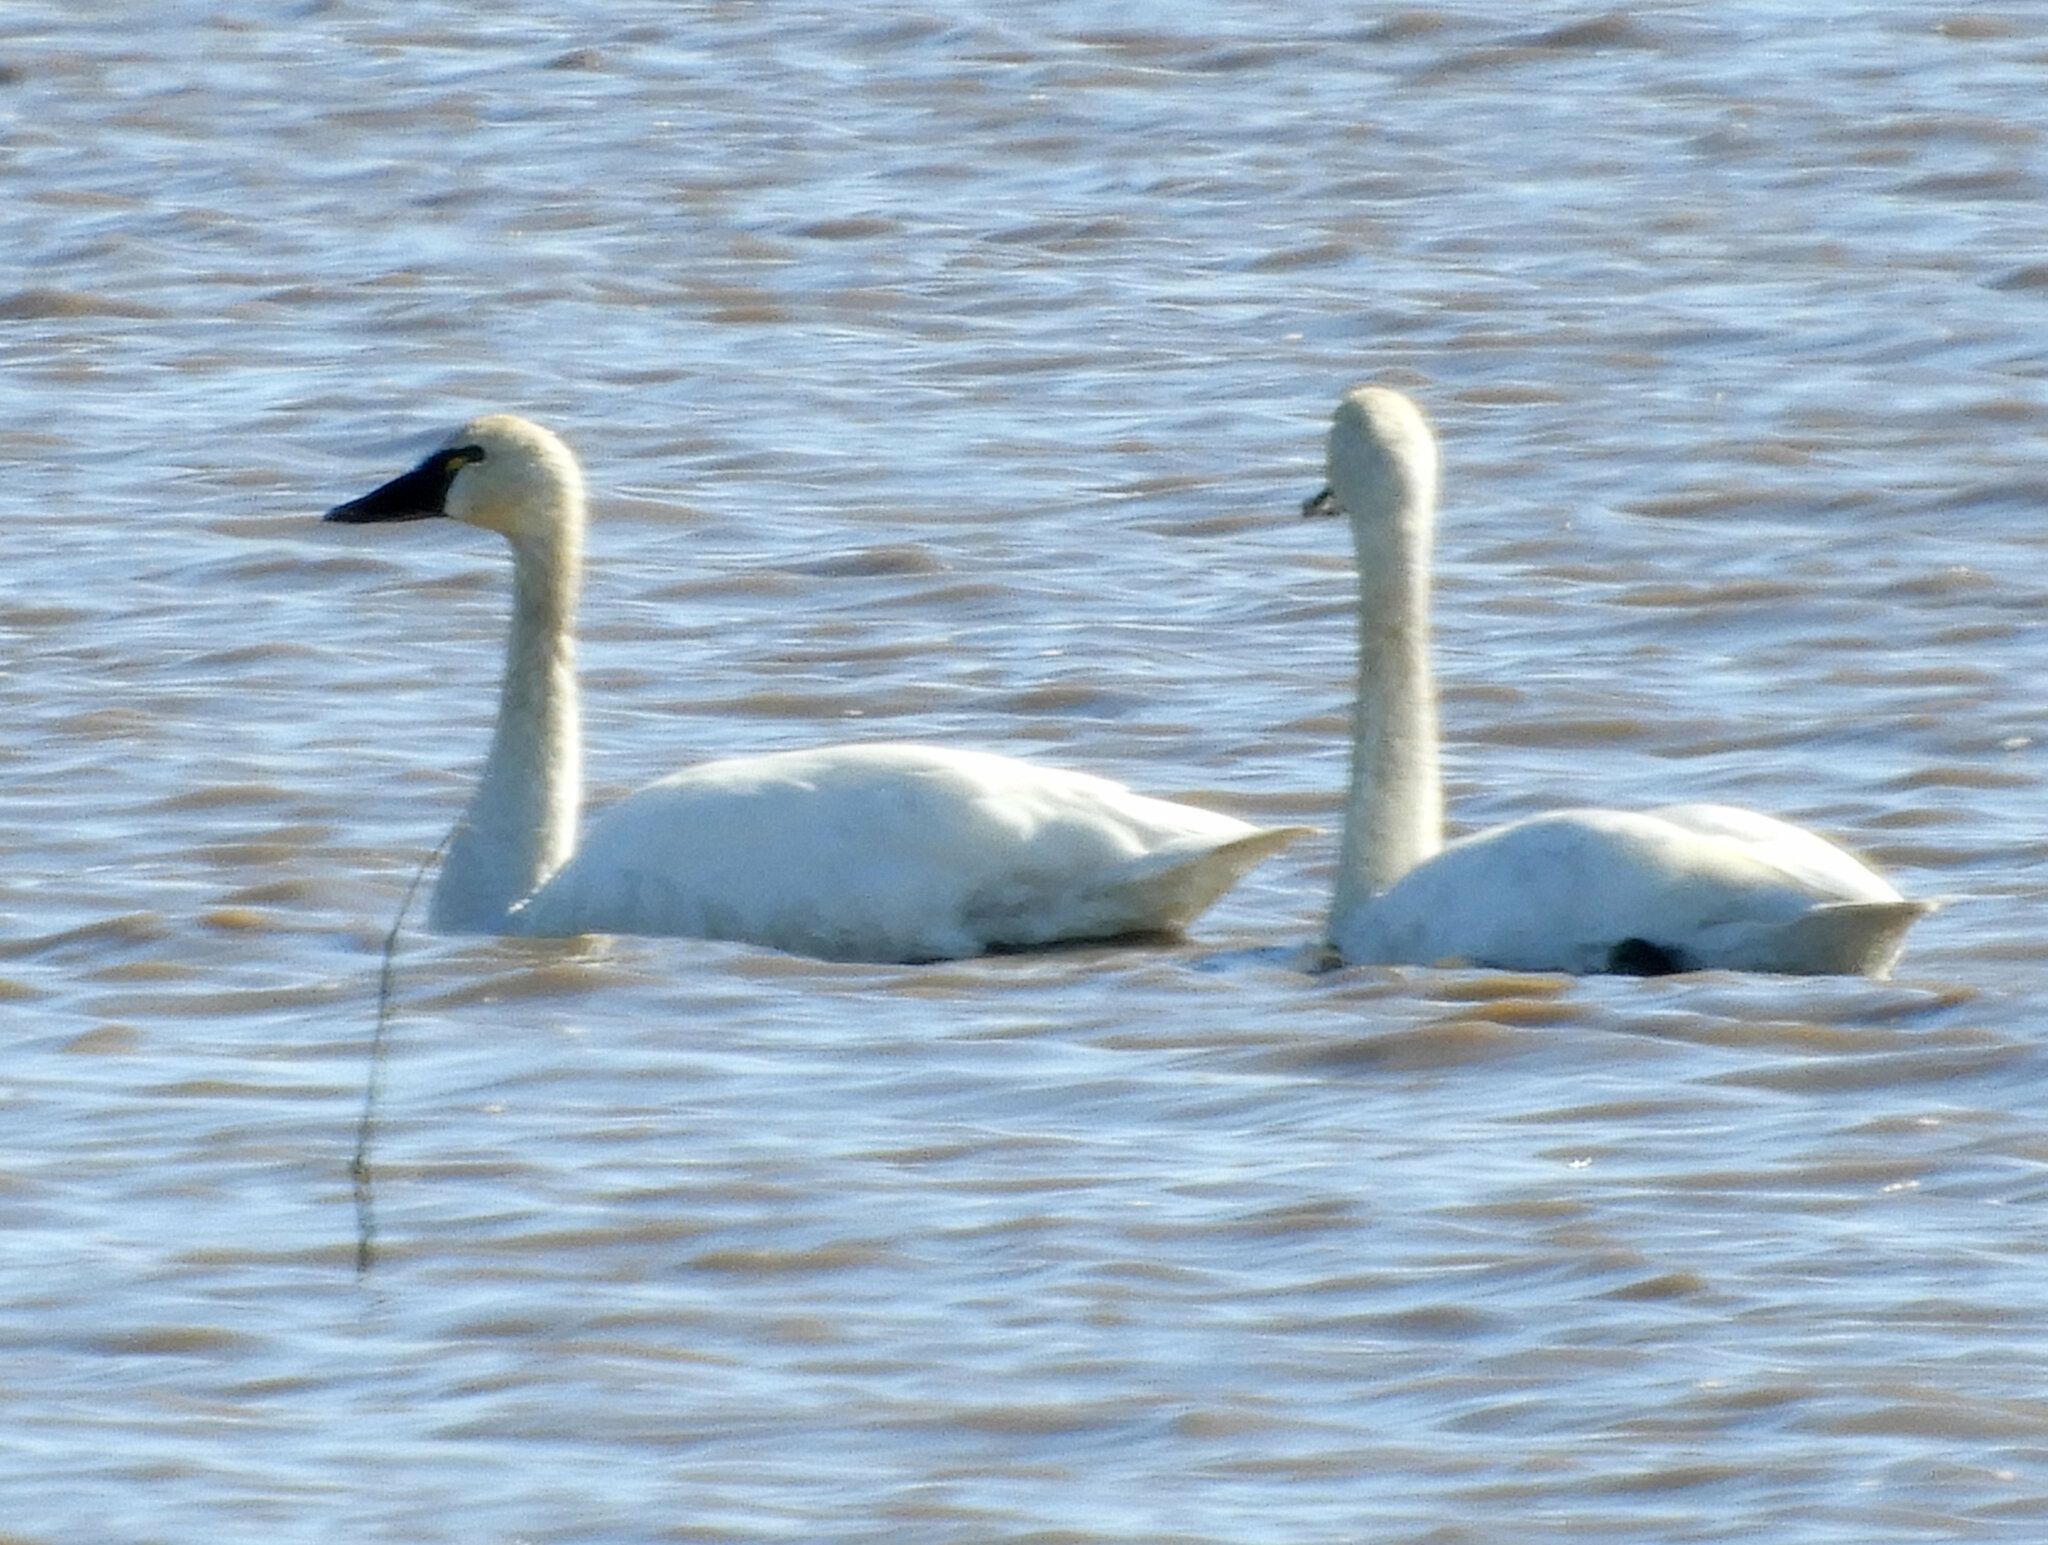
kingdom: Animalia
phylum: Chordata
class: Aves
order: Anseriformes
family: Anatidae
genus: Cygnus
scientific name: Cygnus columbianus
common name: Tundra swan
